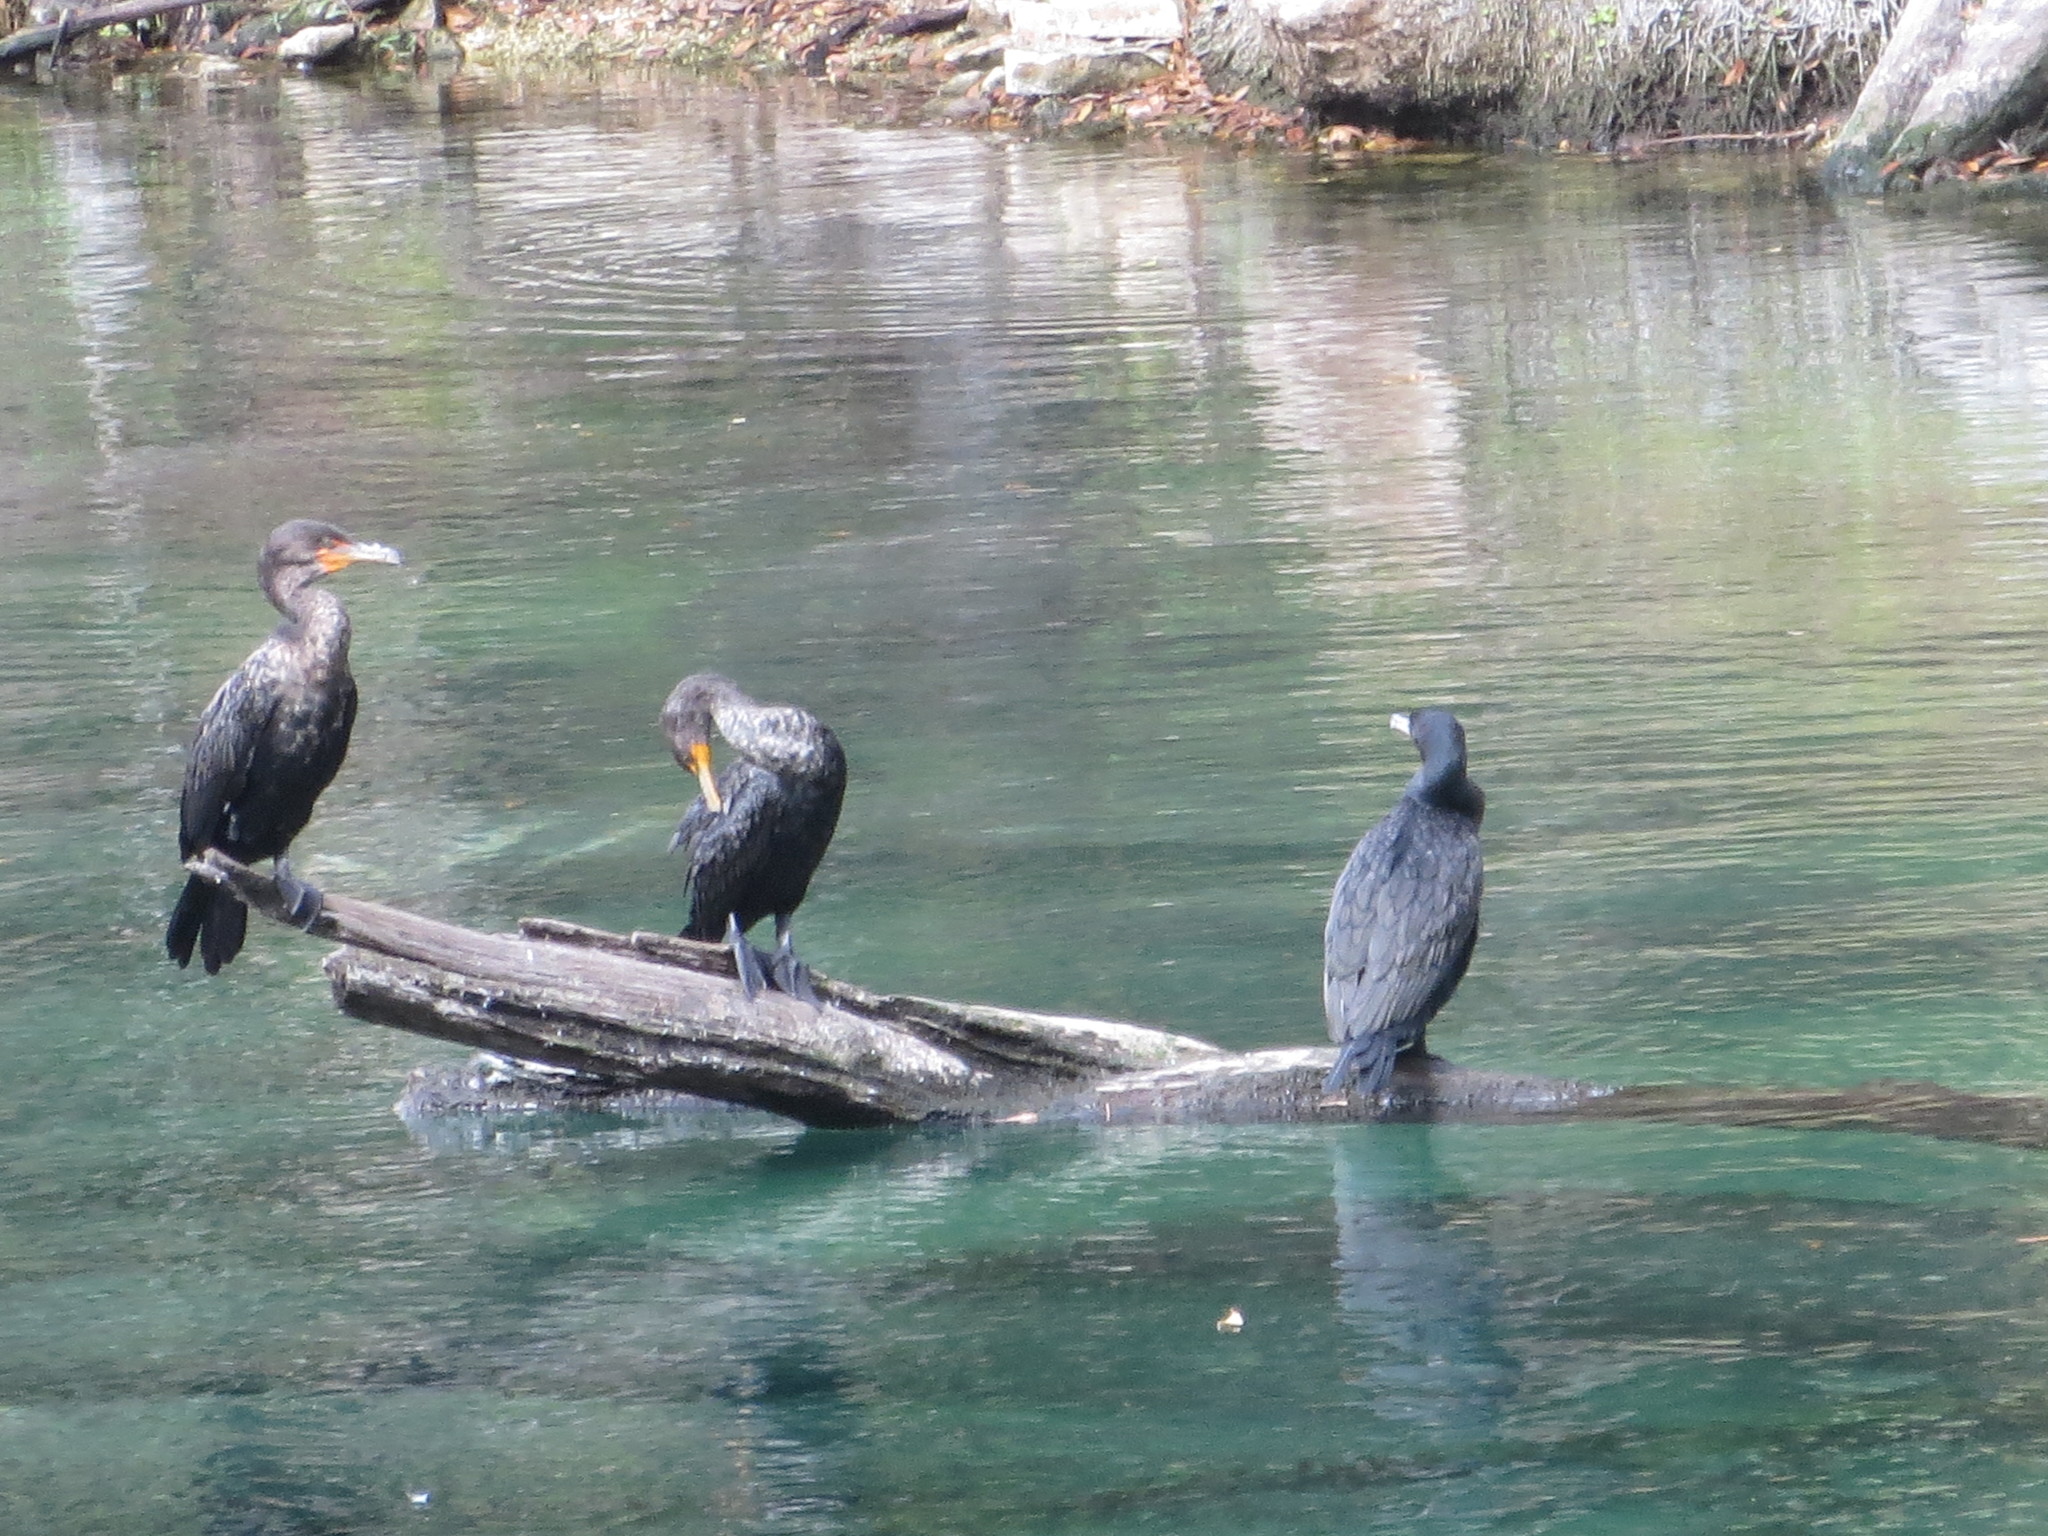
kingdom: Animalia
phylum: Chordata
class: Aves
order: Suliformes
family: Phalacrocoracidae
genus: Phalacrocorax
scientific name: Phalacrocorax auritus
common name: Double-crested cormorant
